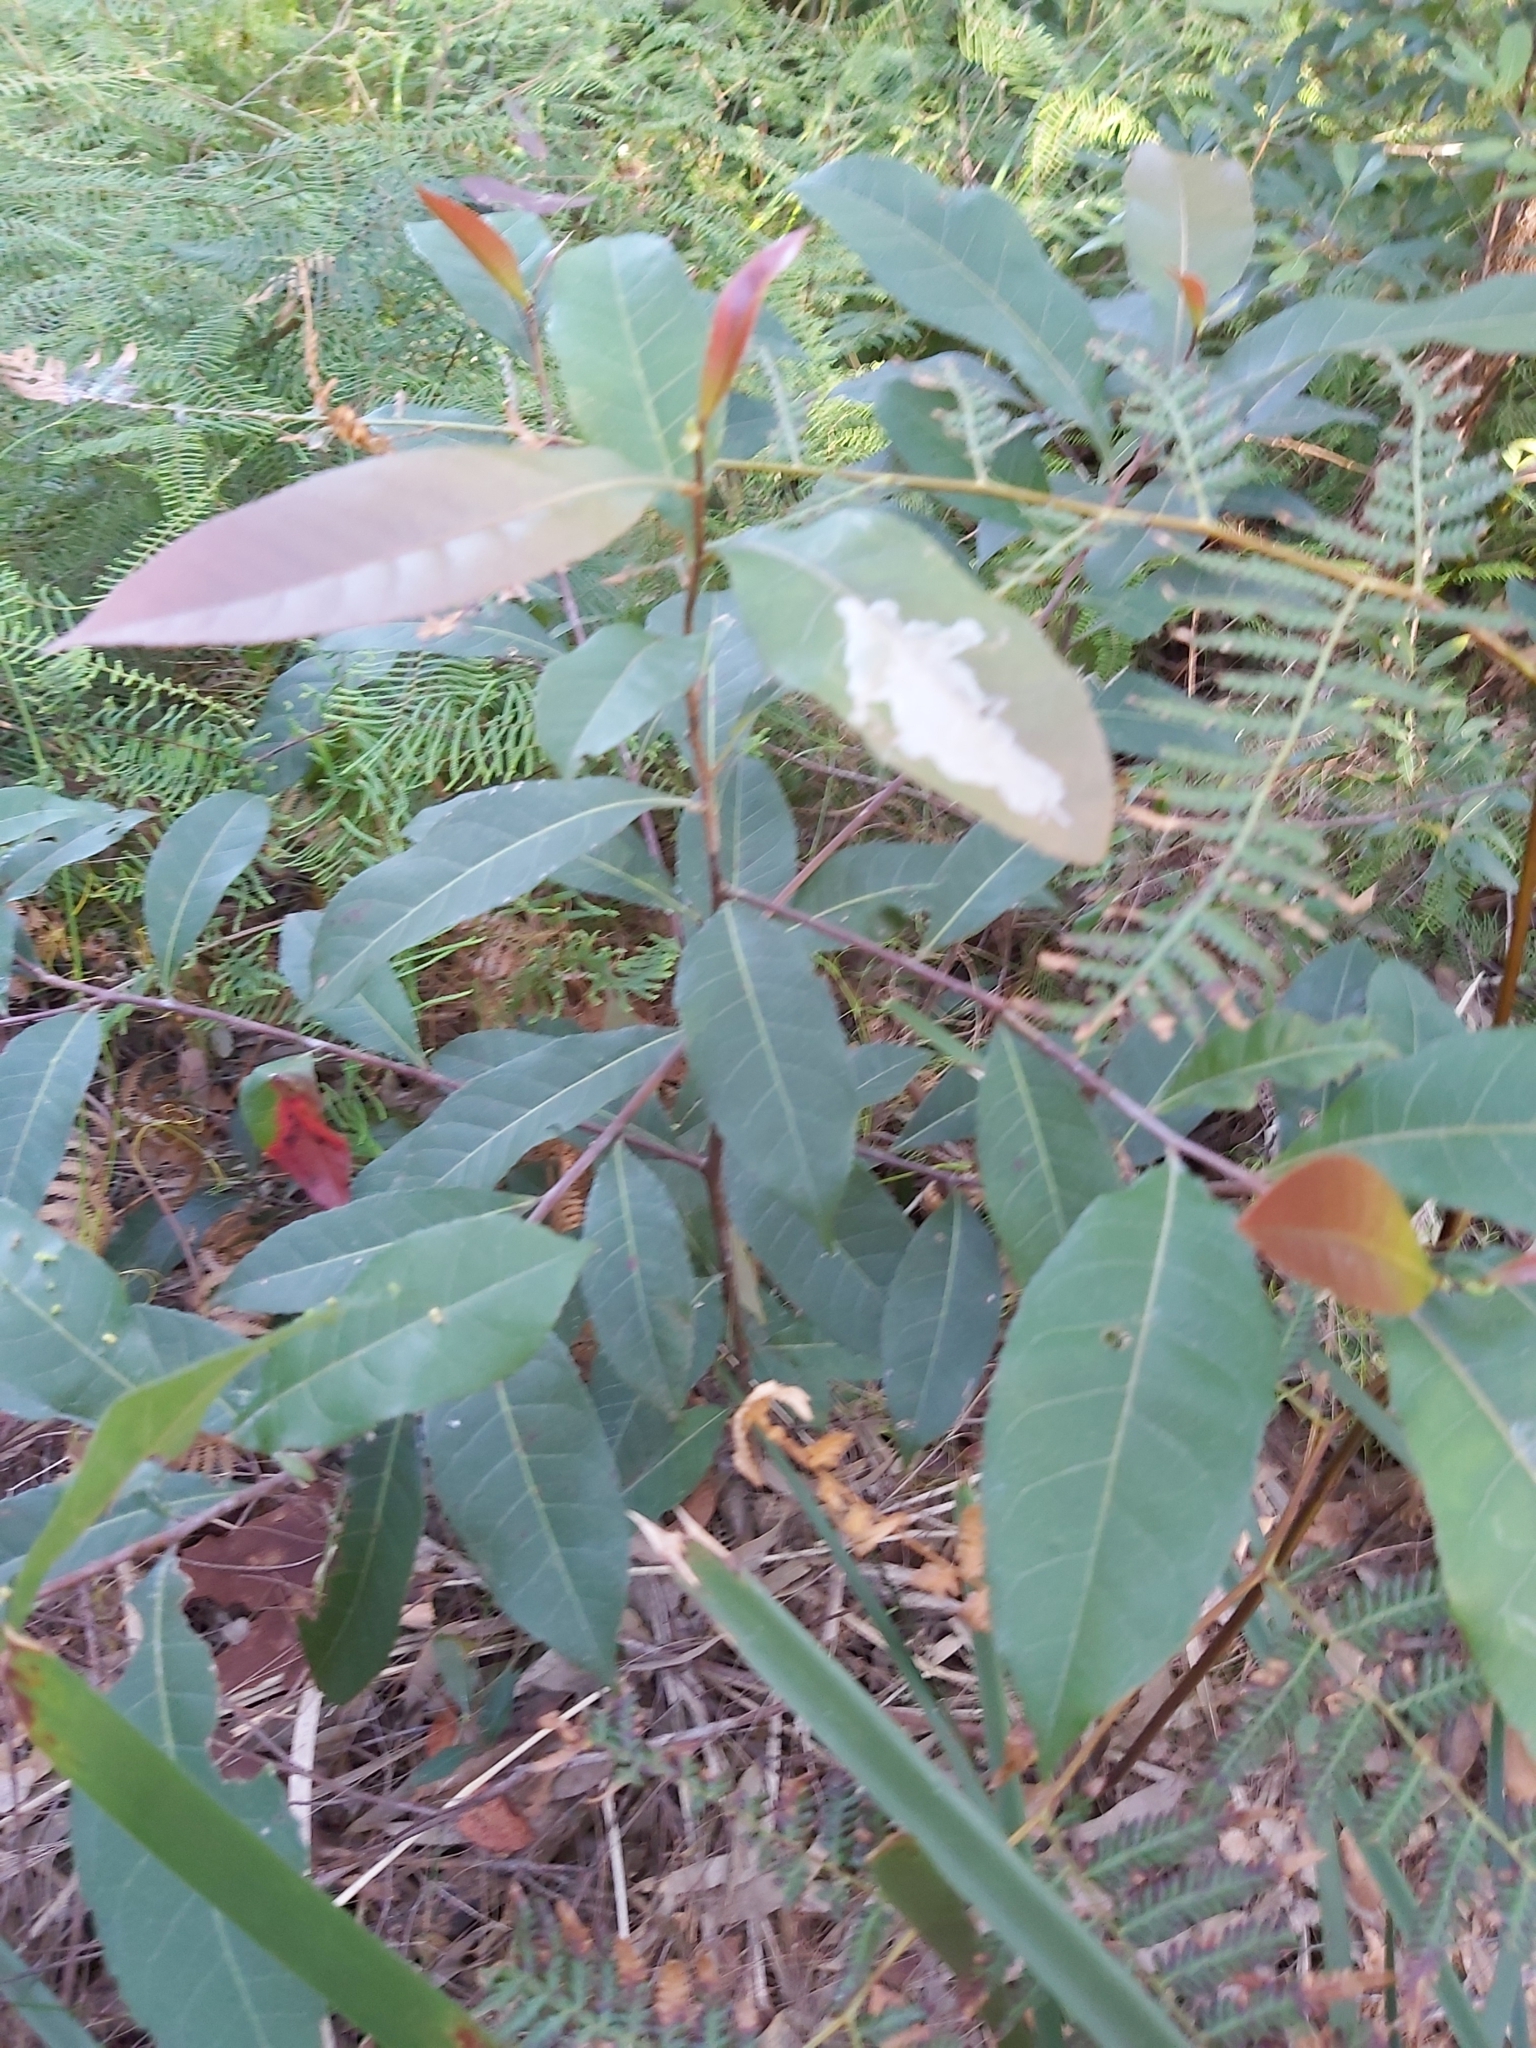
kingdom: Plantae
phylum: Tracheophyta
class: Magnoliopsida
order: Oxalidales
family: Elaeocarpaceae
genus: Elaeocarpus
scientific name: Elaeocarpus reticulatus
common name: Ash quandong
